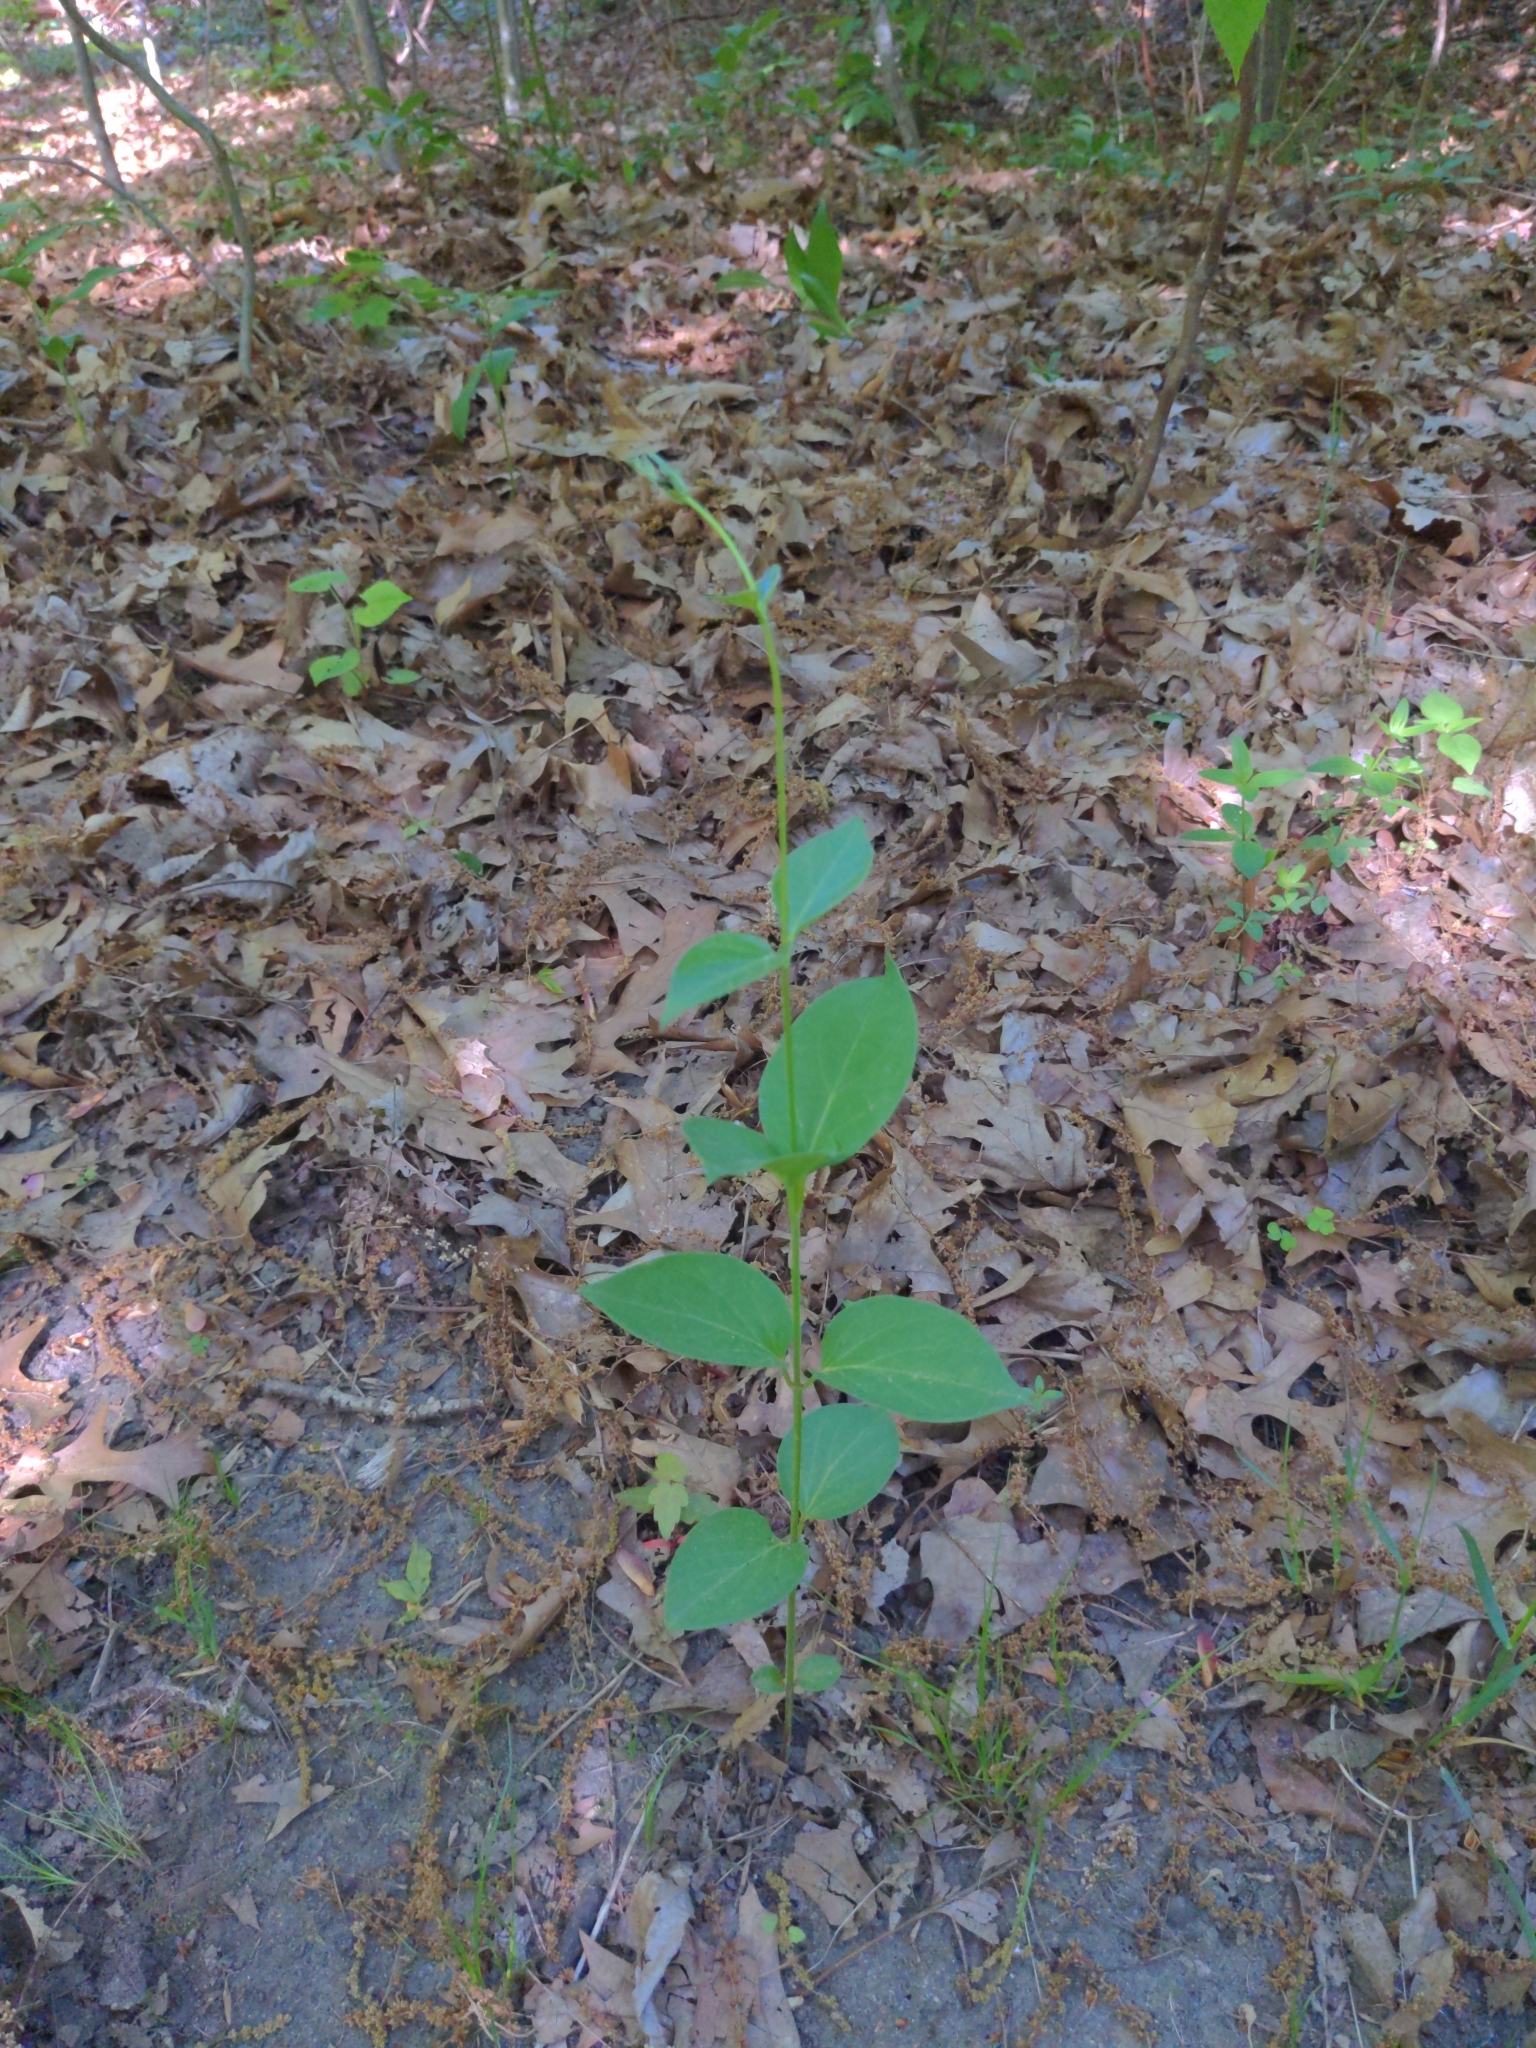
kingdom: Plantae
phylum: Tracheophyta
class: Magnoliopsida
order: Gentianales
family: Apocynaceae
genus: Vincetoxicum
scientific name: Vincetoxicum nigrum
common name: Black swallow-wort
